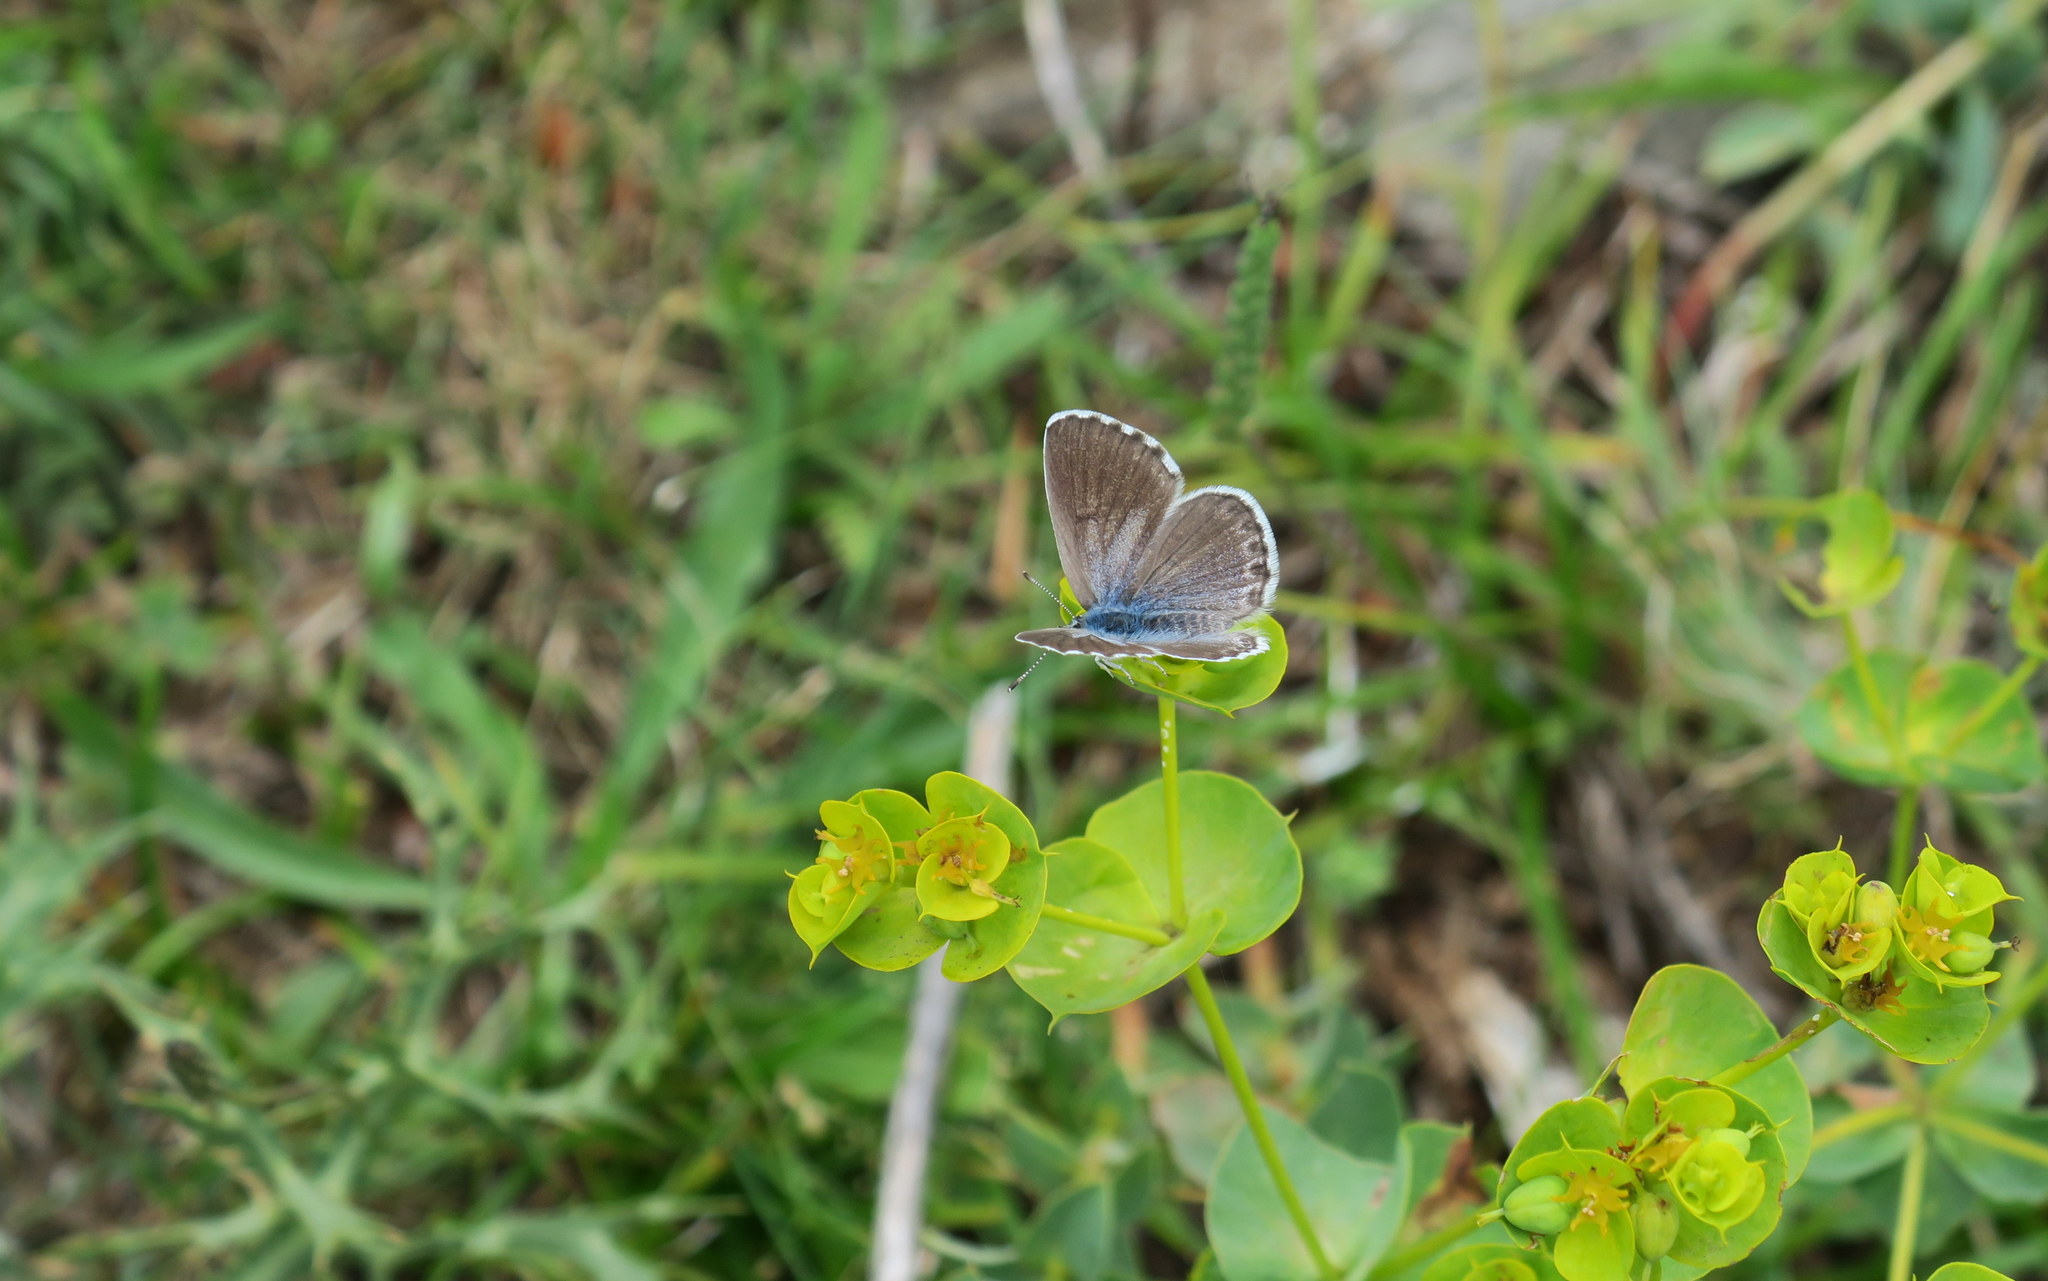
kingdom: Animalia
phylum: Arthropoda
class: Insecta
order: Lepidoptera
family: Lycaenidae
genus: Pseudophilotes
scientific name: Pseudophilotes baton
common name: Baton blue
